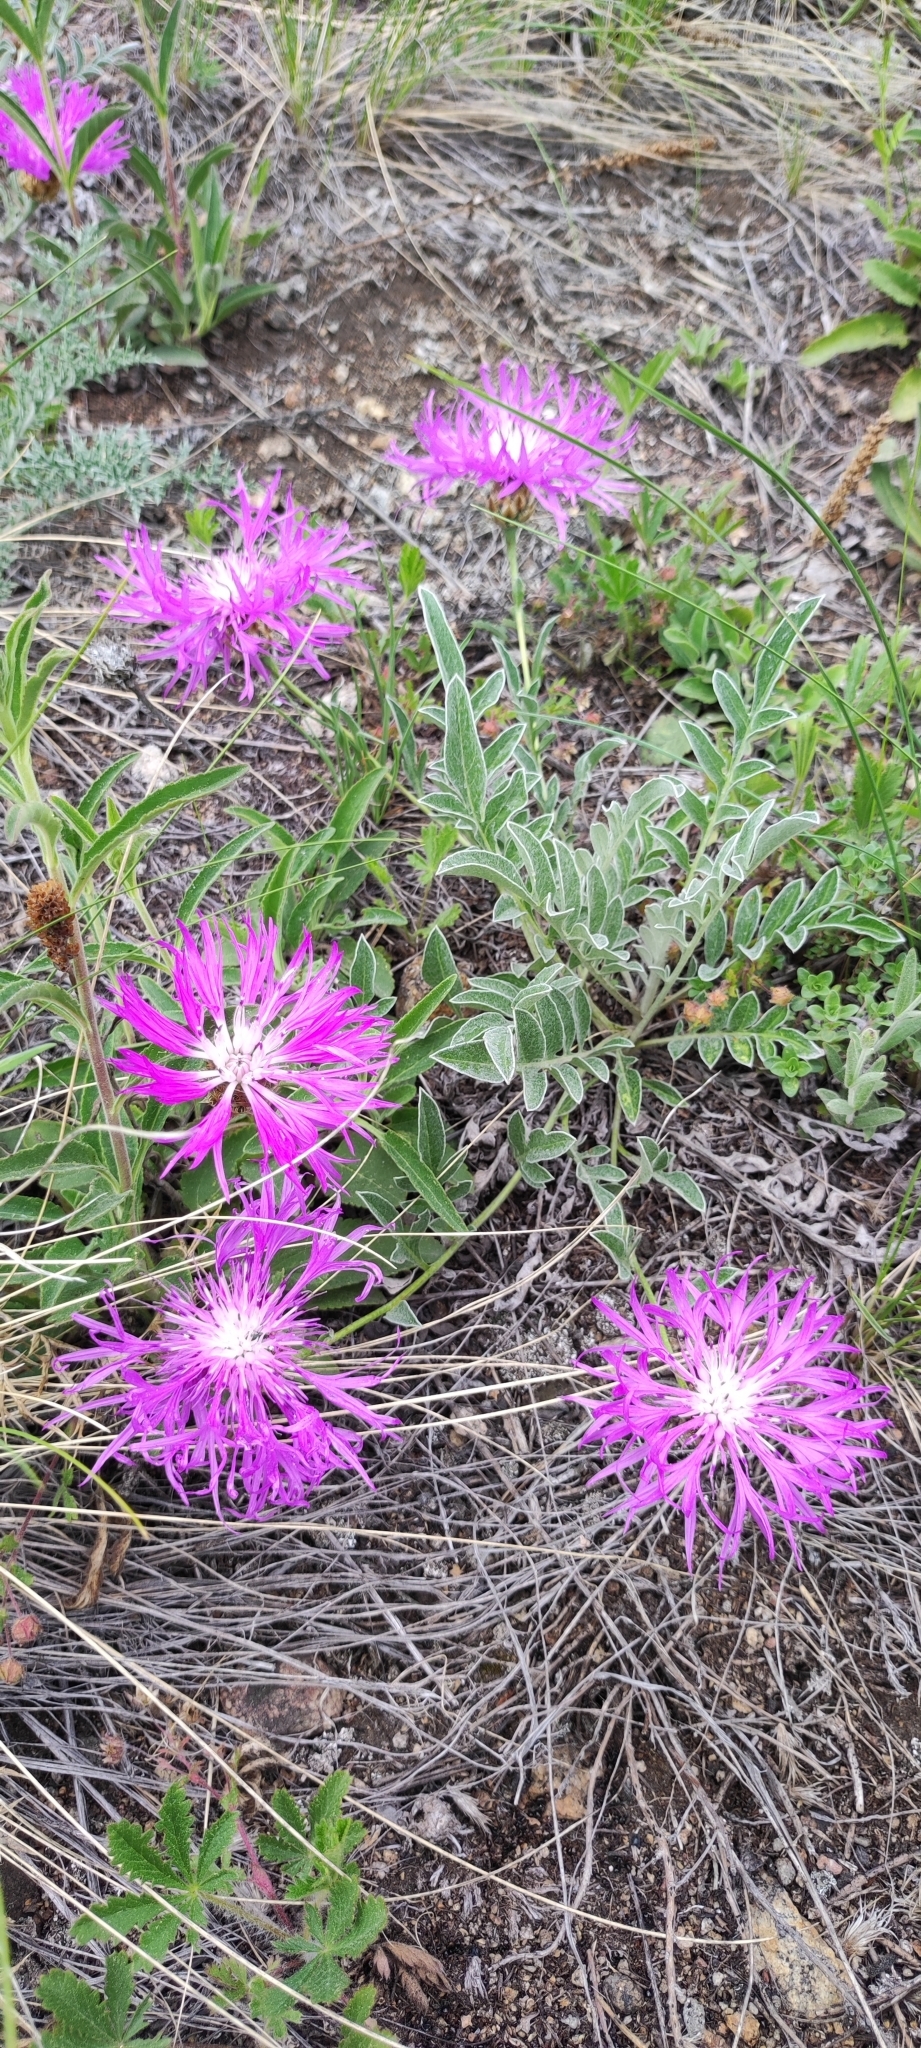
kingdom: Plantae
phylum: Tracheophyta
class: Magnoliopsida
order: Asterales
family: Asteraceae
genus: Psephellus
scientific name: Psephellus sibiricus
